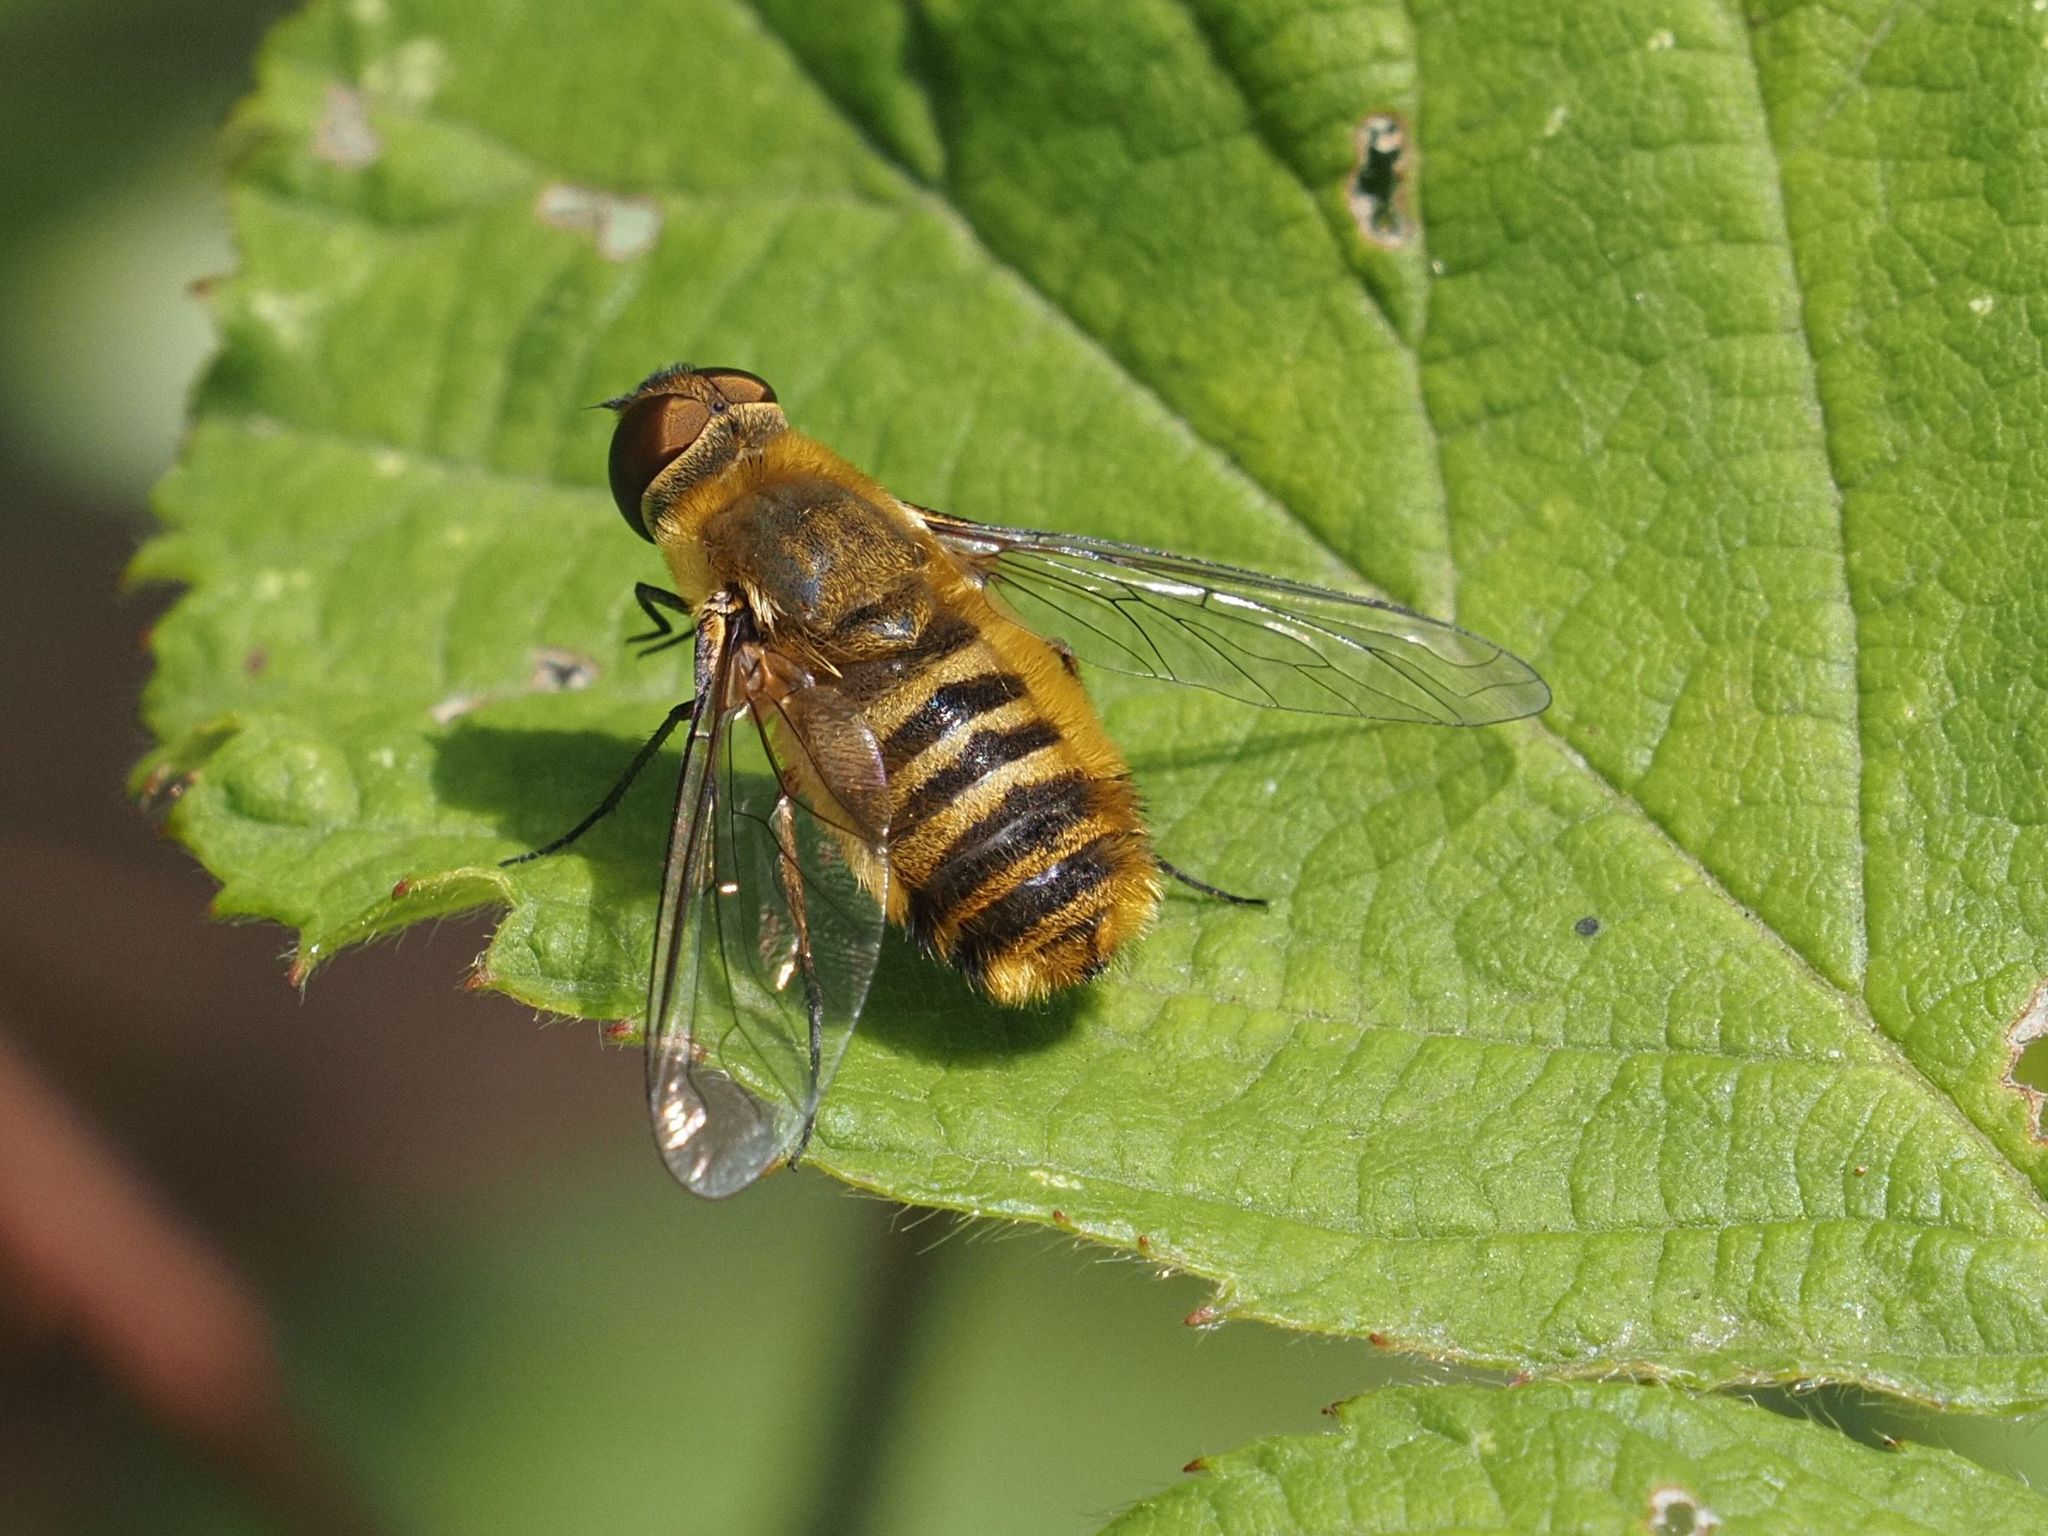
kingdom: Animalia
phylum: Arthropoda
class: Insecta
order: Diptera
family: Bombyliidae
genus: Villa
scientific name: Villa hottentotta
